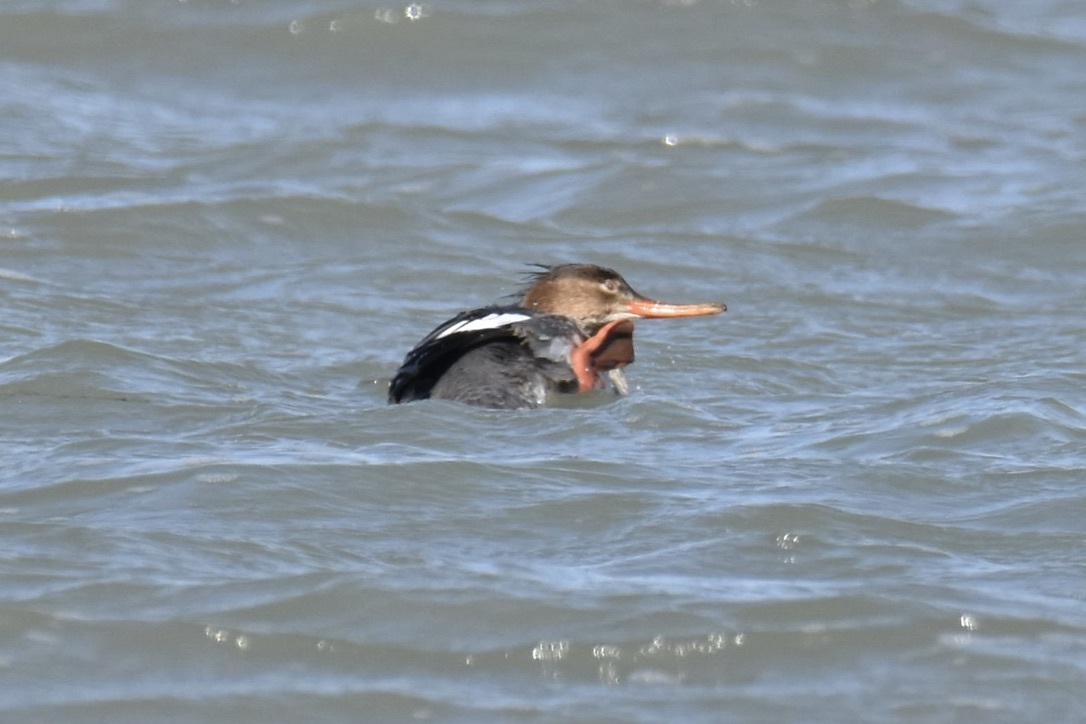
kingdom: Animalia
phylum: Chordata
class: Aves
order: Anseriformes
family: Anatidae
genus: Mergus
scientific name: Mergus serrator
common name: Red-breasted merganser
